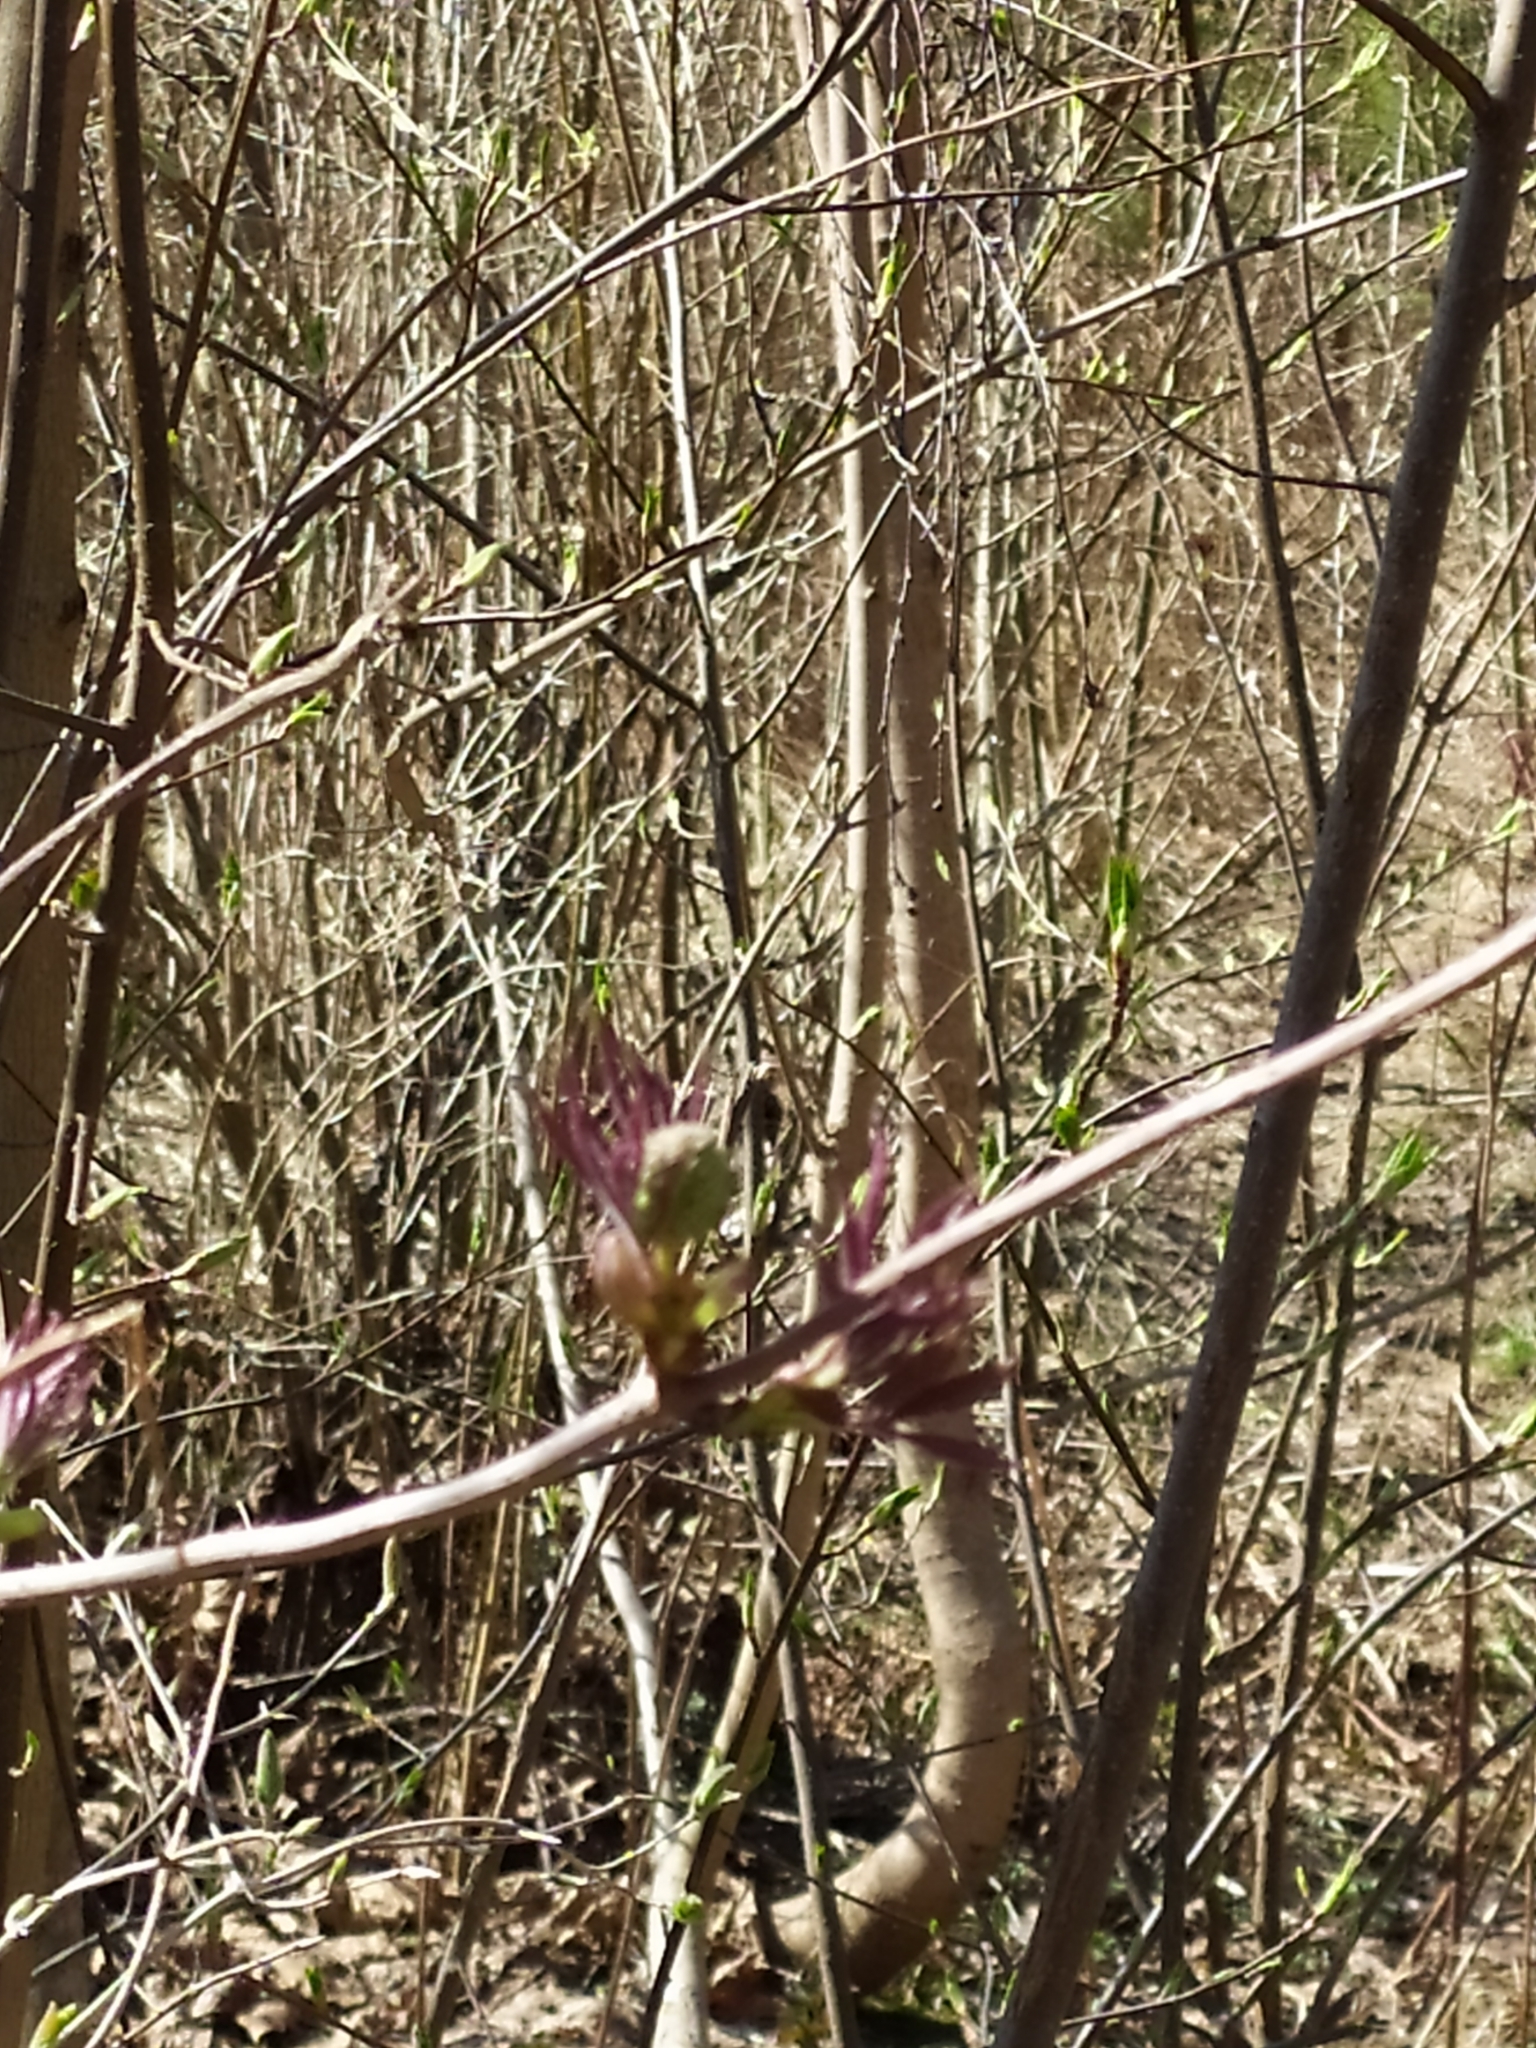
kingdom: Plantae
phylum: Tracheophyta
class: Magnoliopsida
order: Dipsacales
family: Viburnaceae
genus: Sambucus
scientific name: Sambucus racemosa
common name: Red-berried elder
